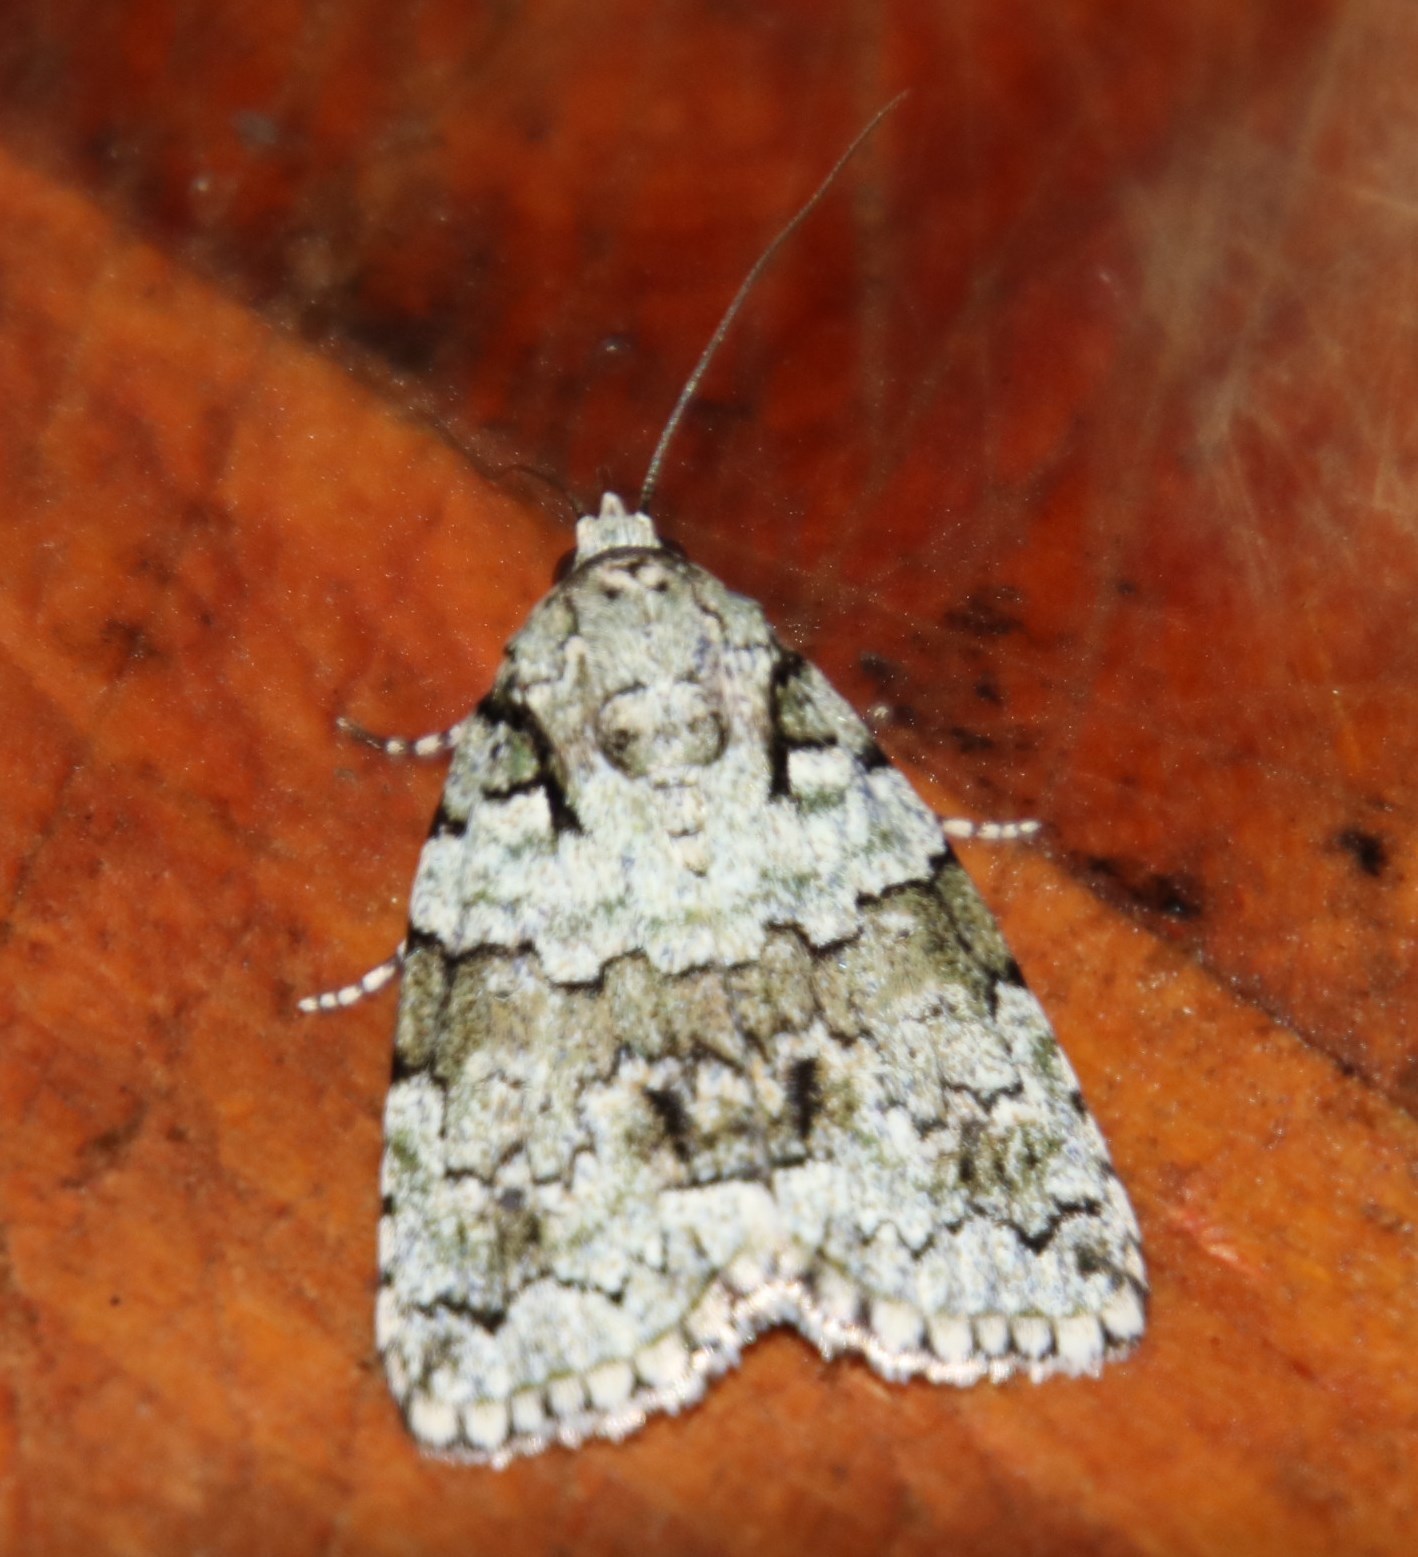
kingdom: Animalia
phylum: Arthropoda
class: Insecta
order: Lepidoptera
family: Nolidae
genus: Blenina
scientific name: Blenina squamifera
